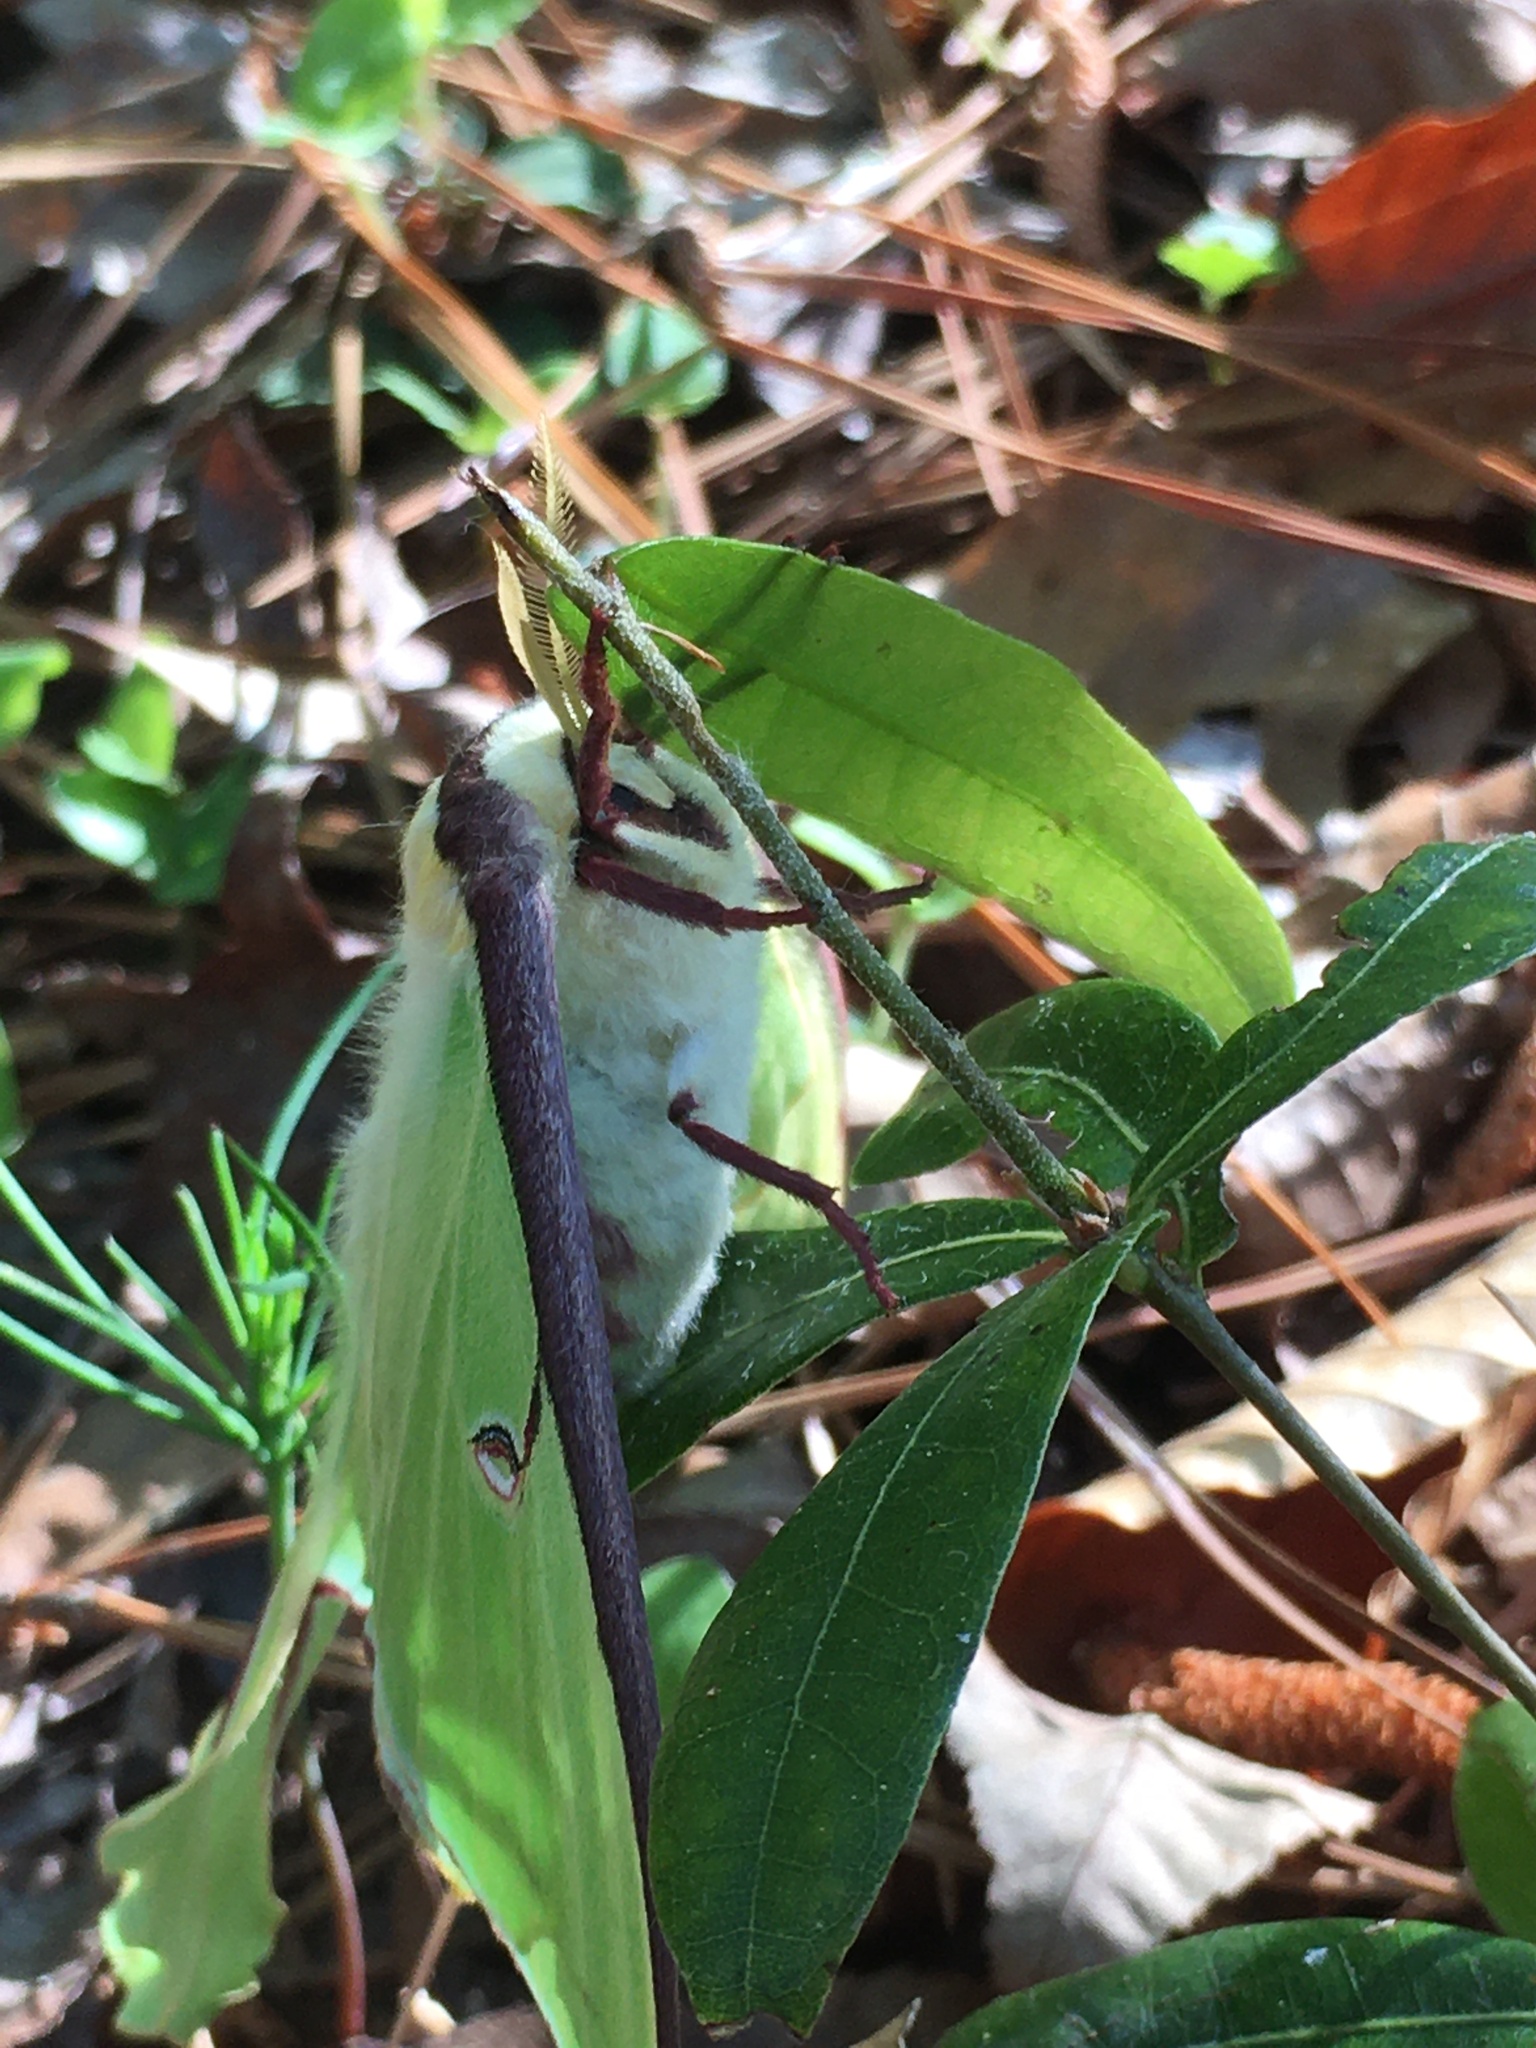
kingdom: Animalia
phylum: Arthropoda
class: Insecta
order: Lepidoptera
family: Saturniidae
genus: Actias
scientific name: Actias luna
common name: Luna moth
